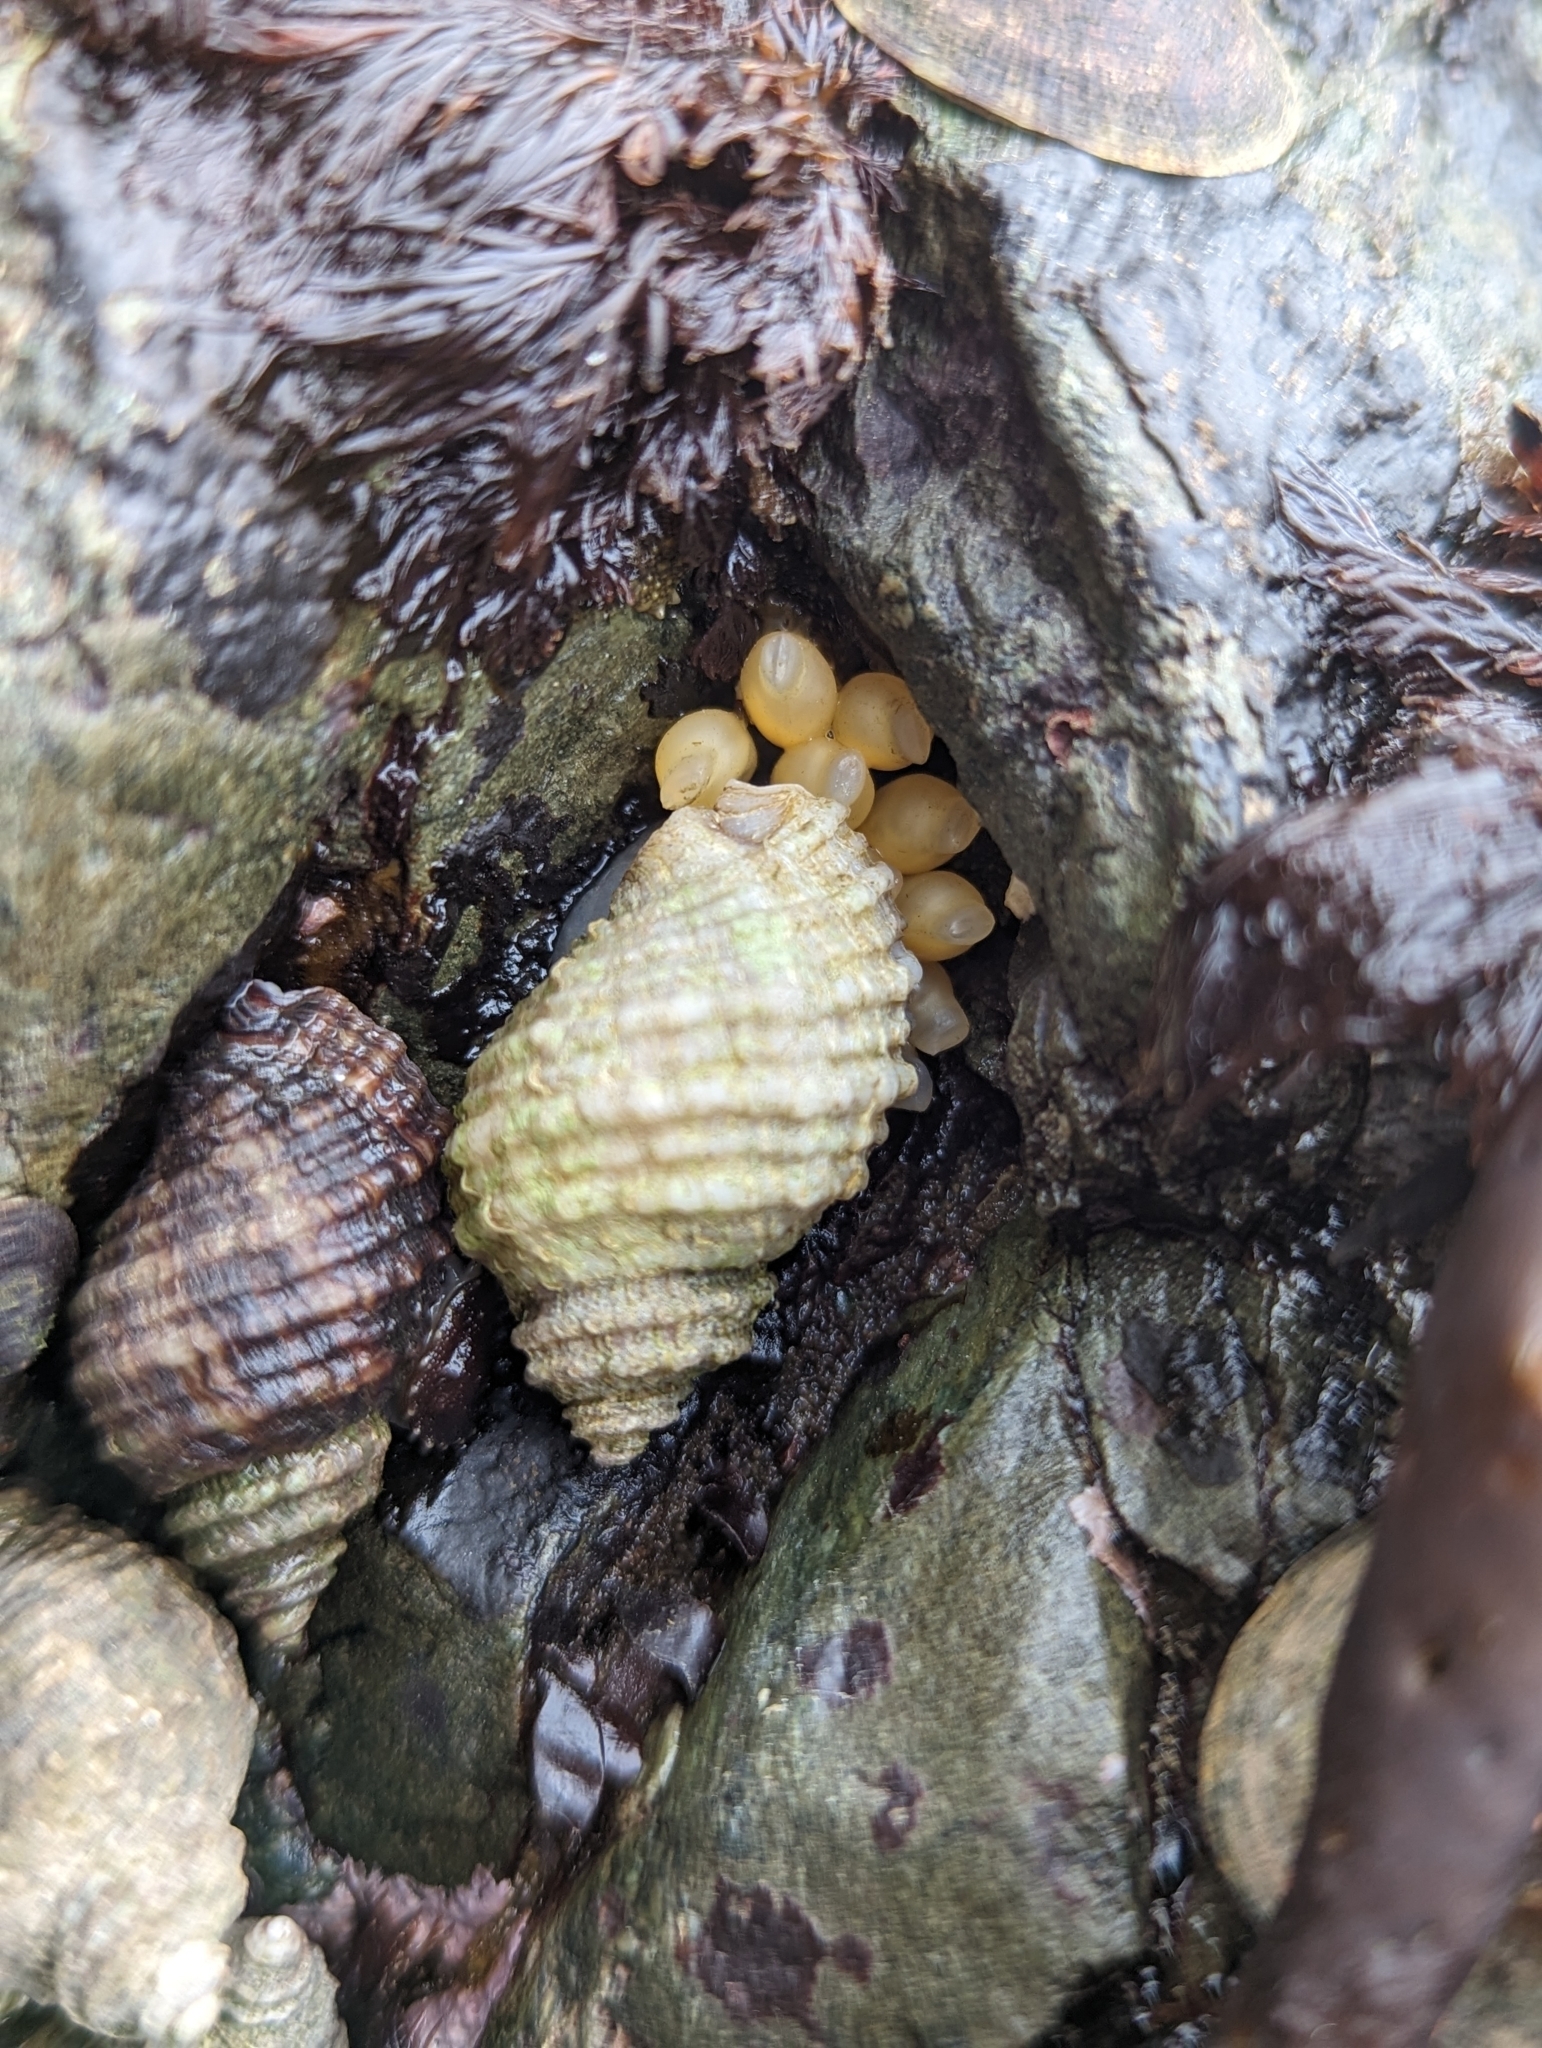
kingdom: Animalia
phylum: Mollusca
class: Gastropoda
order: Neogastropoda
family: Muricidae
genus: Nucella
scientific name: Nucella ostrina
